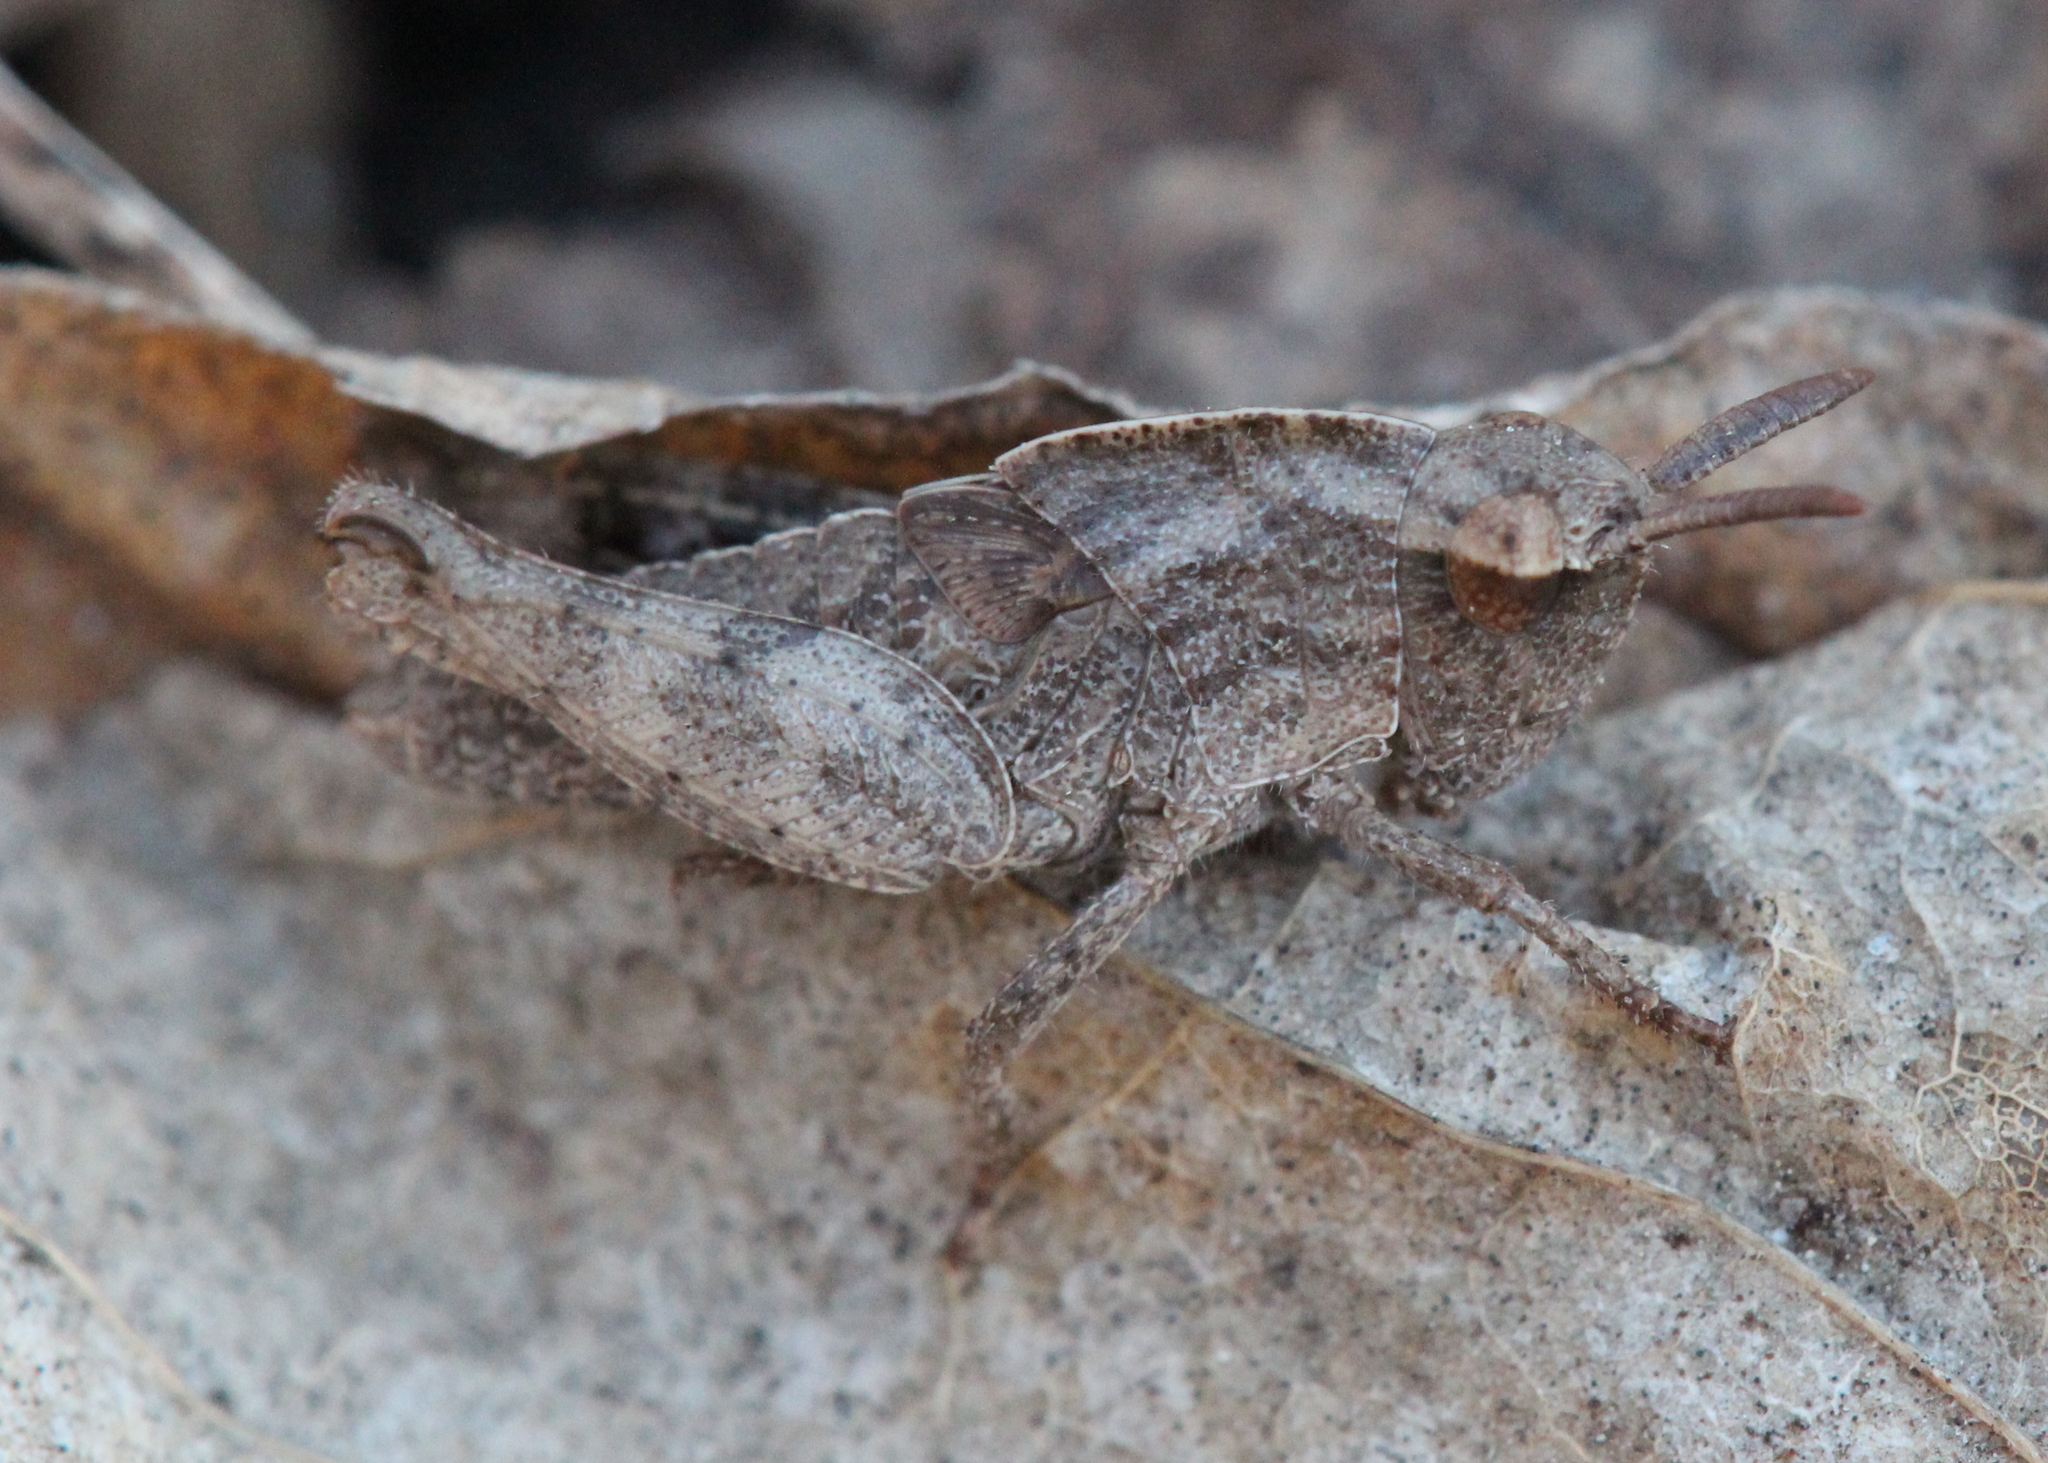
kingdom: Animalia
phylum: Arthropoda
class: Insecta
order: Orthoptera
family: Acrididae
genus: Chortophaga
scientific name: Chortophaga viridifasciata
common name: Green-striped grasshopper
